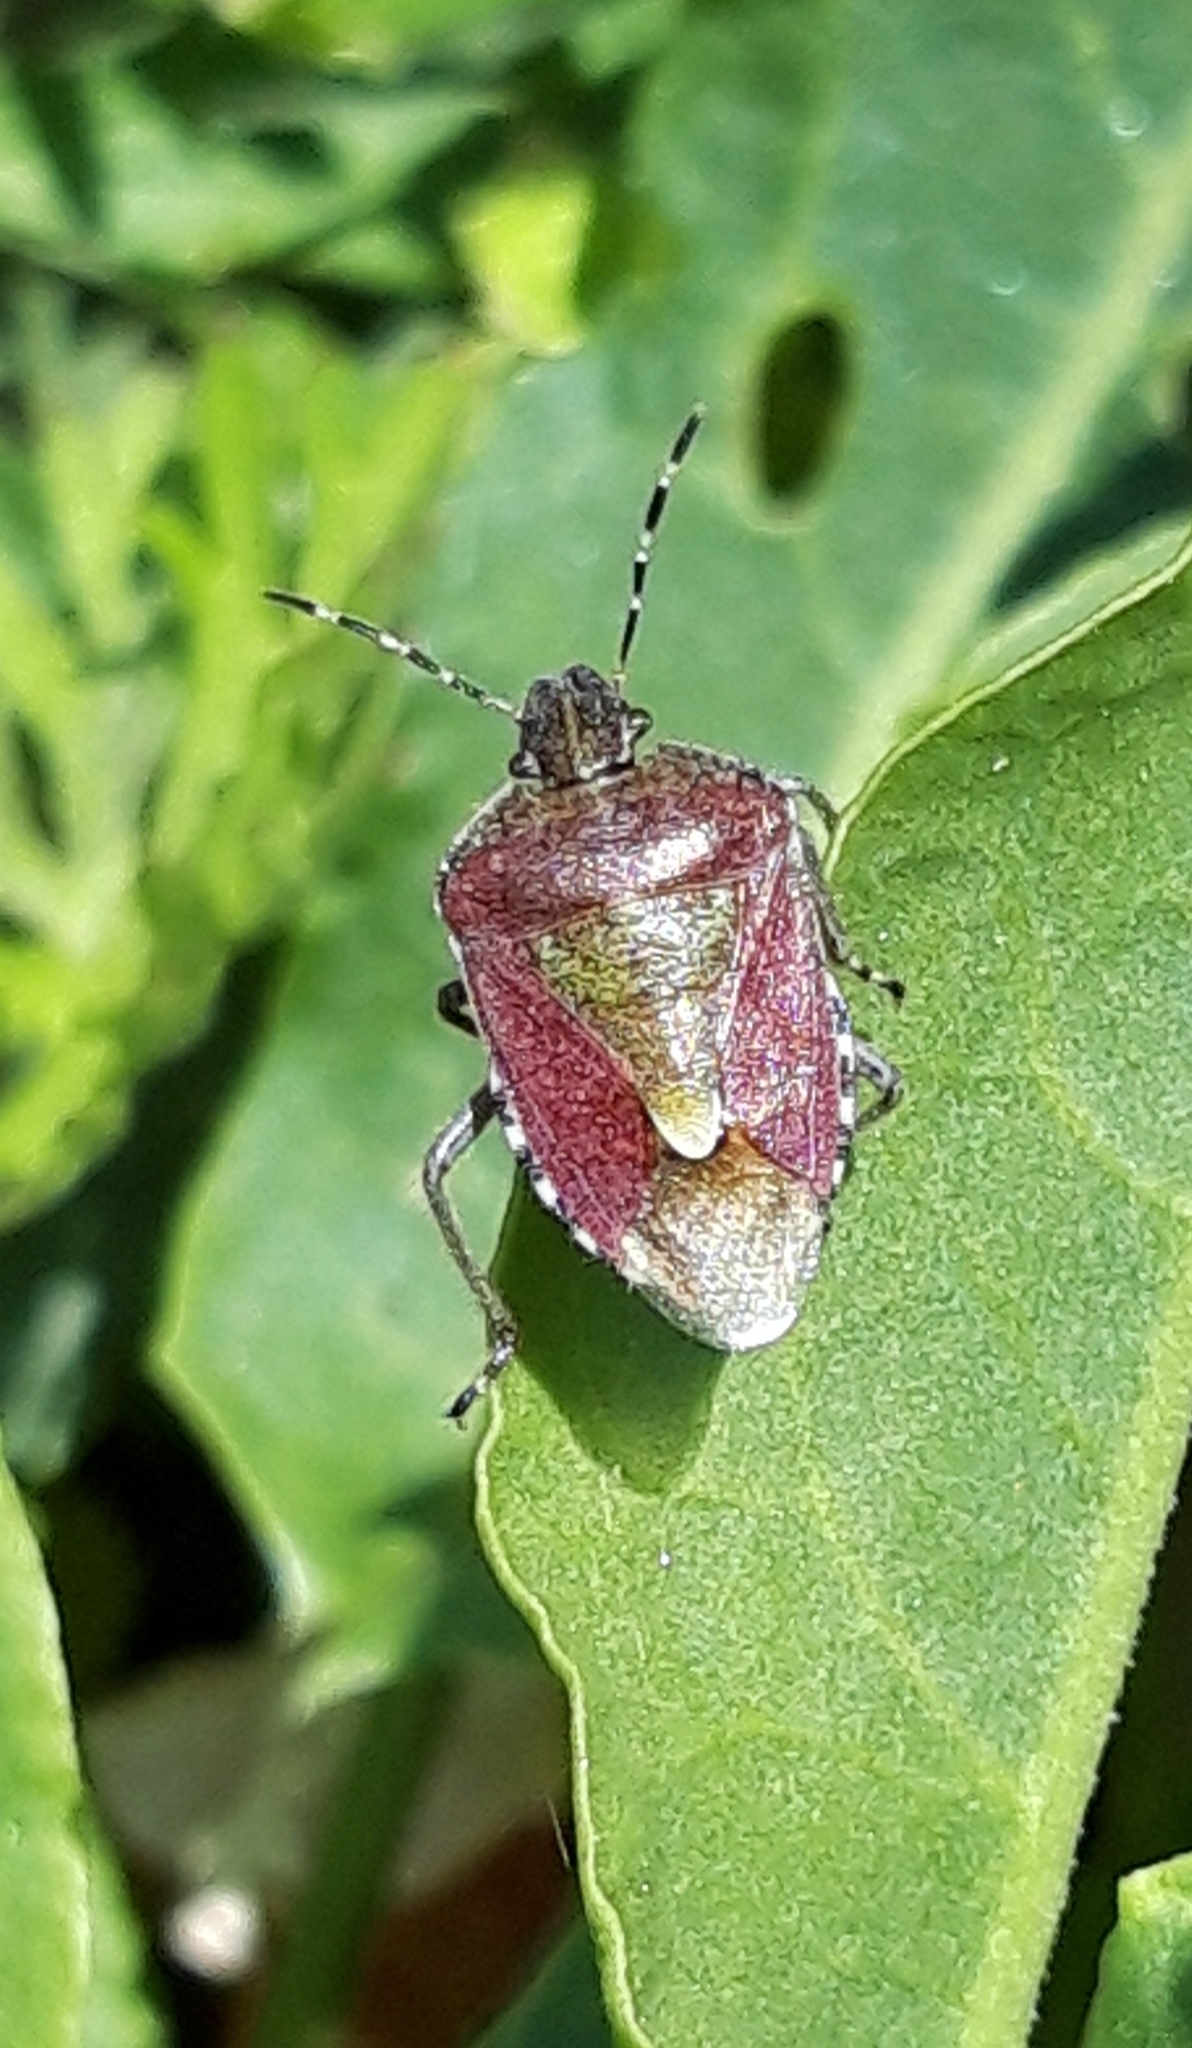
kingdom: Animalia
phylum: Arthropoda
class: Insecta
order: Hemiptera
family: Pentatomidae
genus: Dolycoris
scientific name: Dolycoris baccarum
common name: Sloe bug
